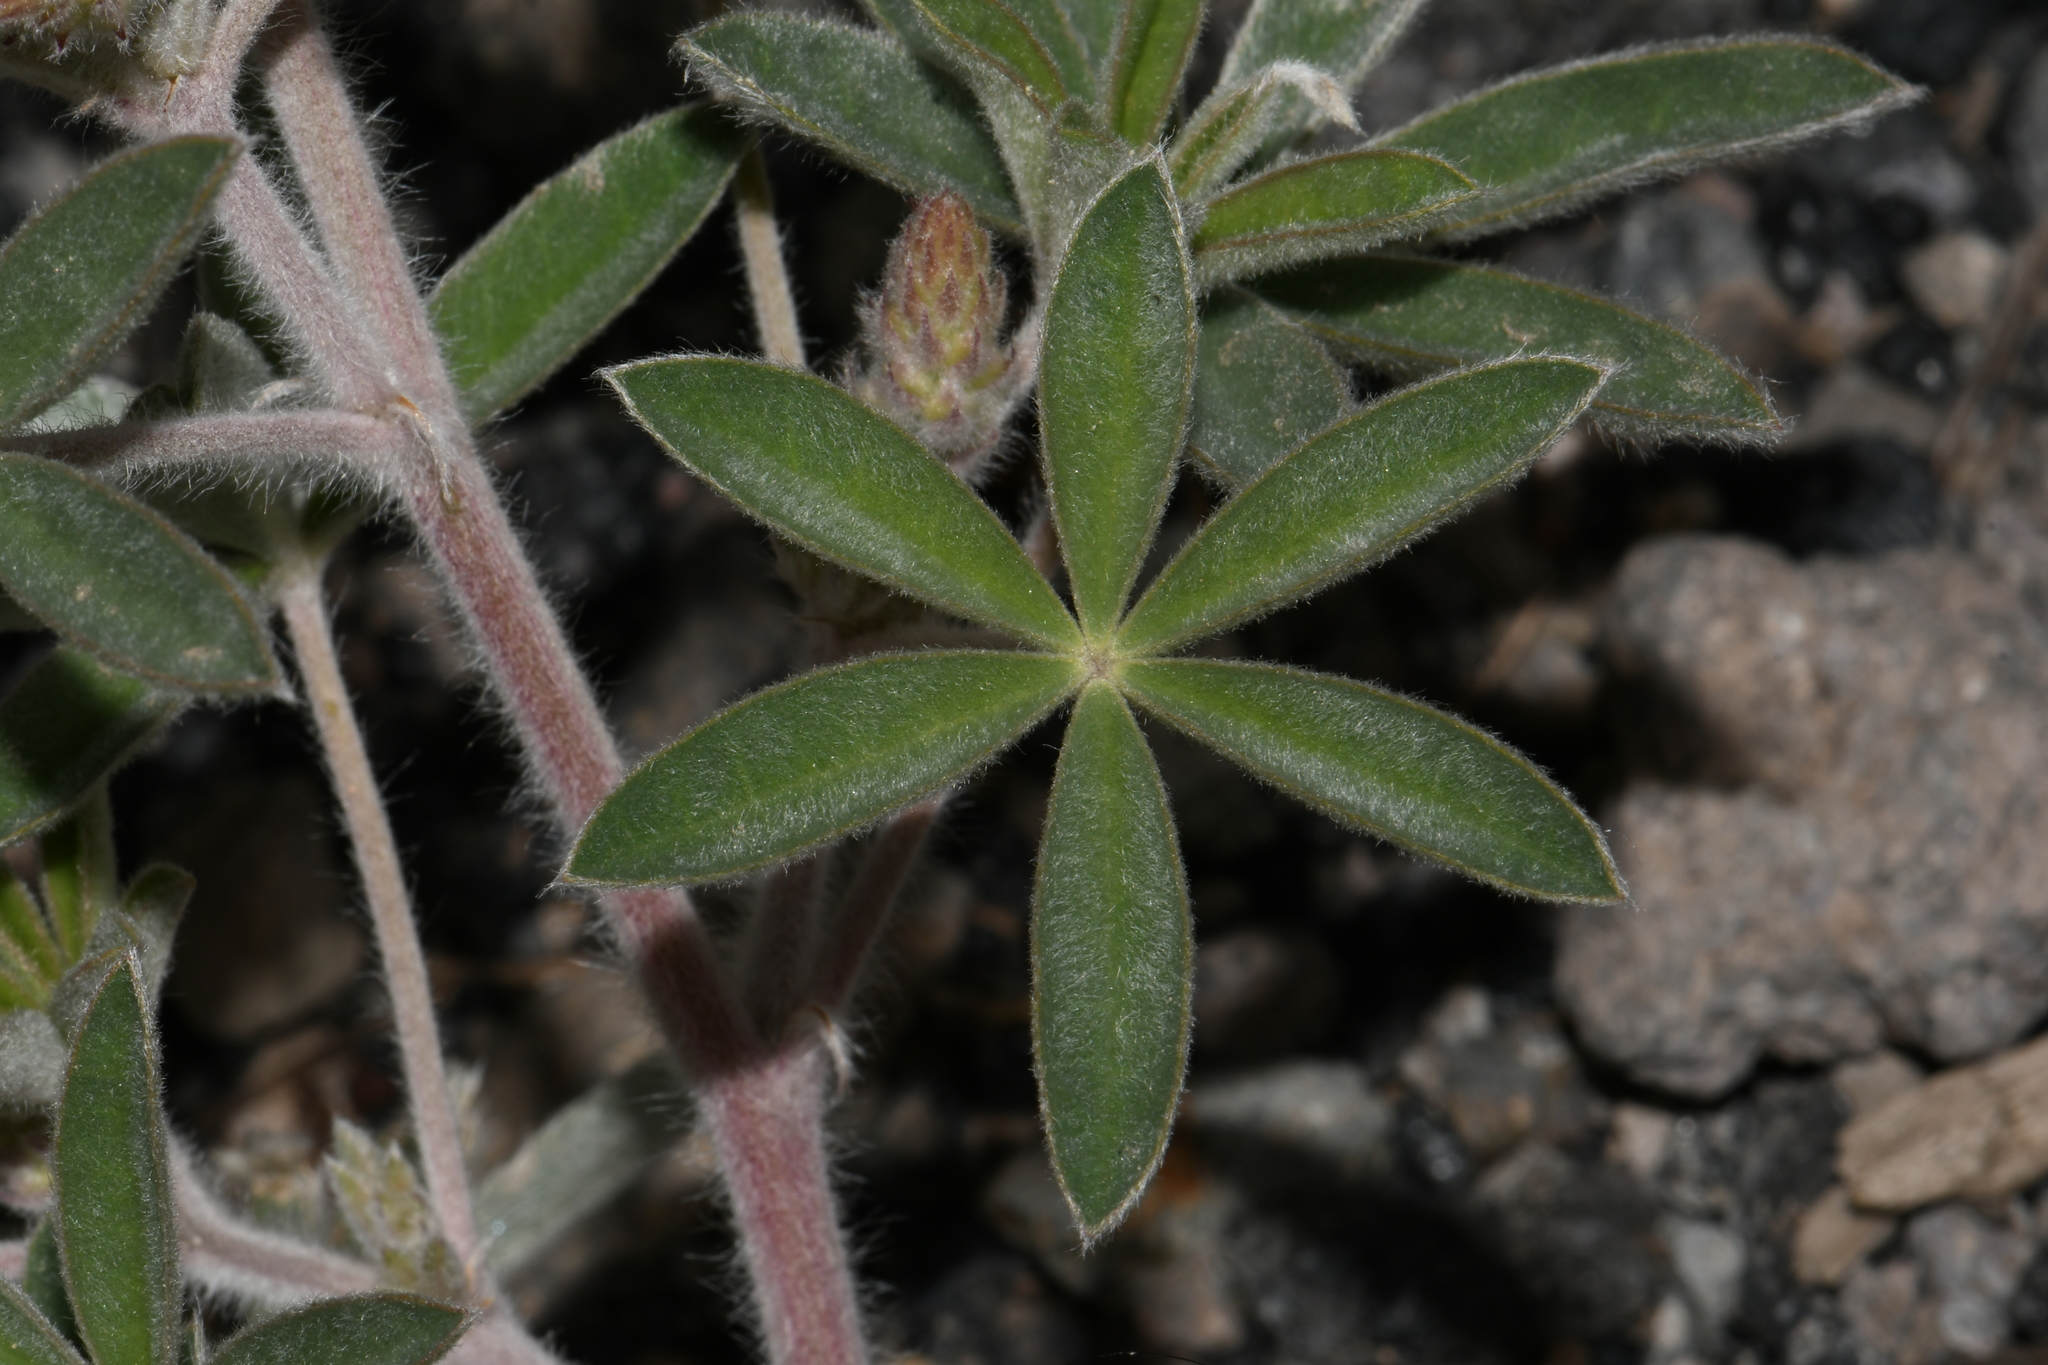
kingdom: Plantae
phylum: Tracheophyta
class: Magnoliopsida
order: Fabales
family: Fabaceae
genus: Lupinus
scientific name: Lupinus sericeus
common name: Silky lupine
